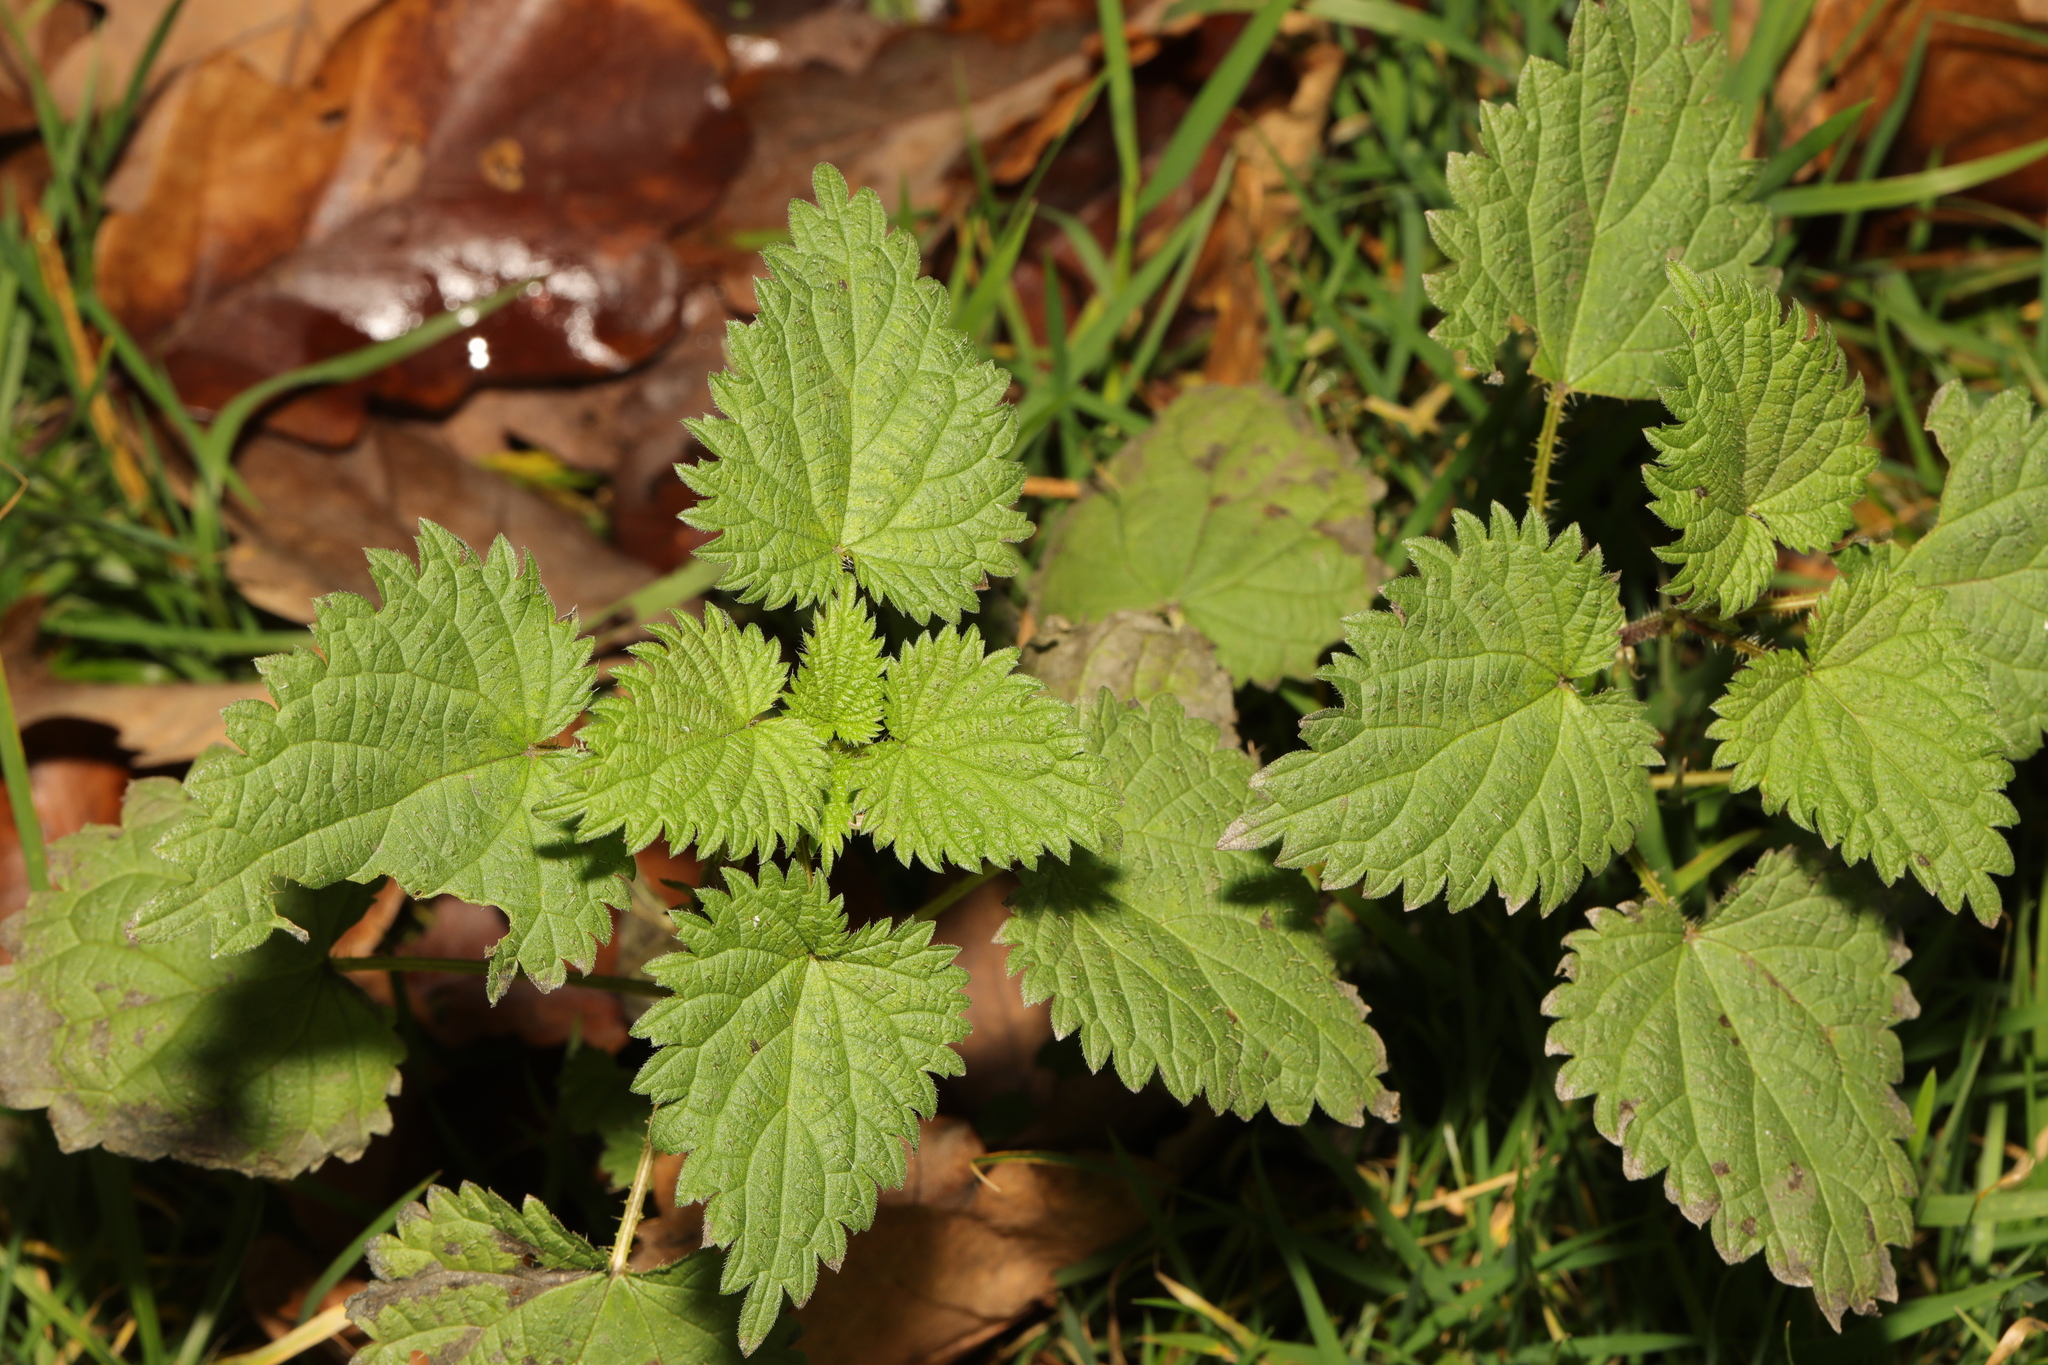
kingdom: Plantae
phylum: Tracheophyta
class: Magnoliopsida
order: Rosales
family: Urticaceae
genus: Urtica
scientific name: Urtica dioica
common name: Common nettle
